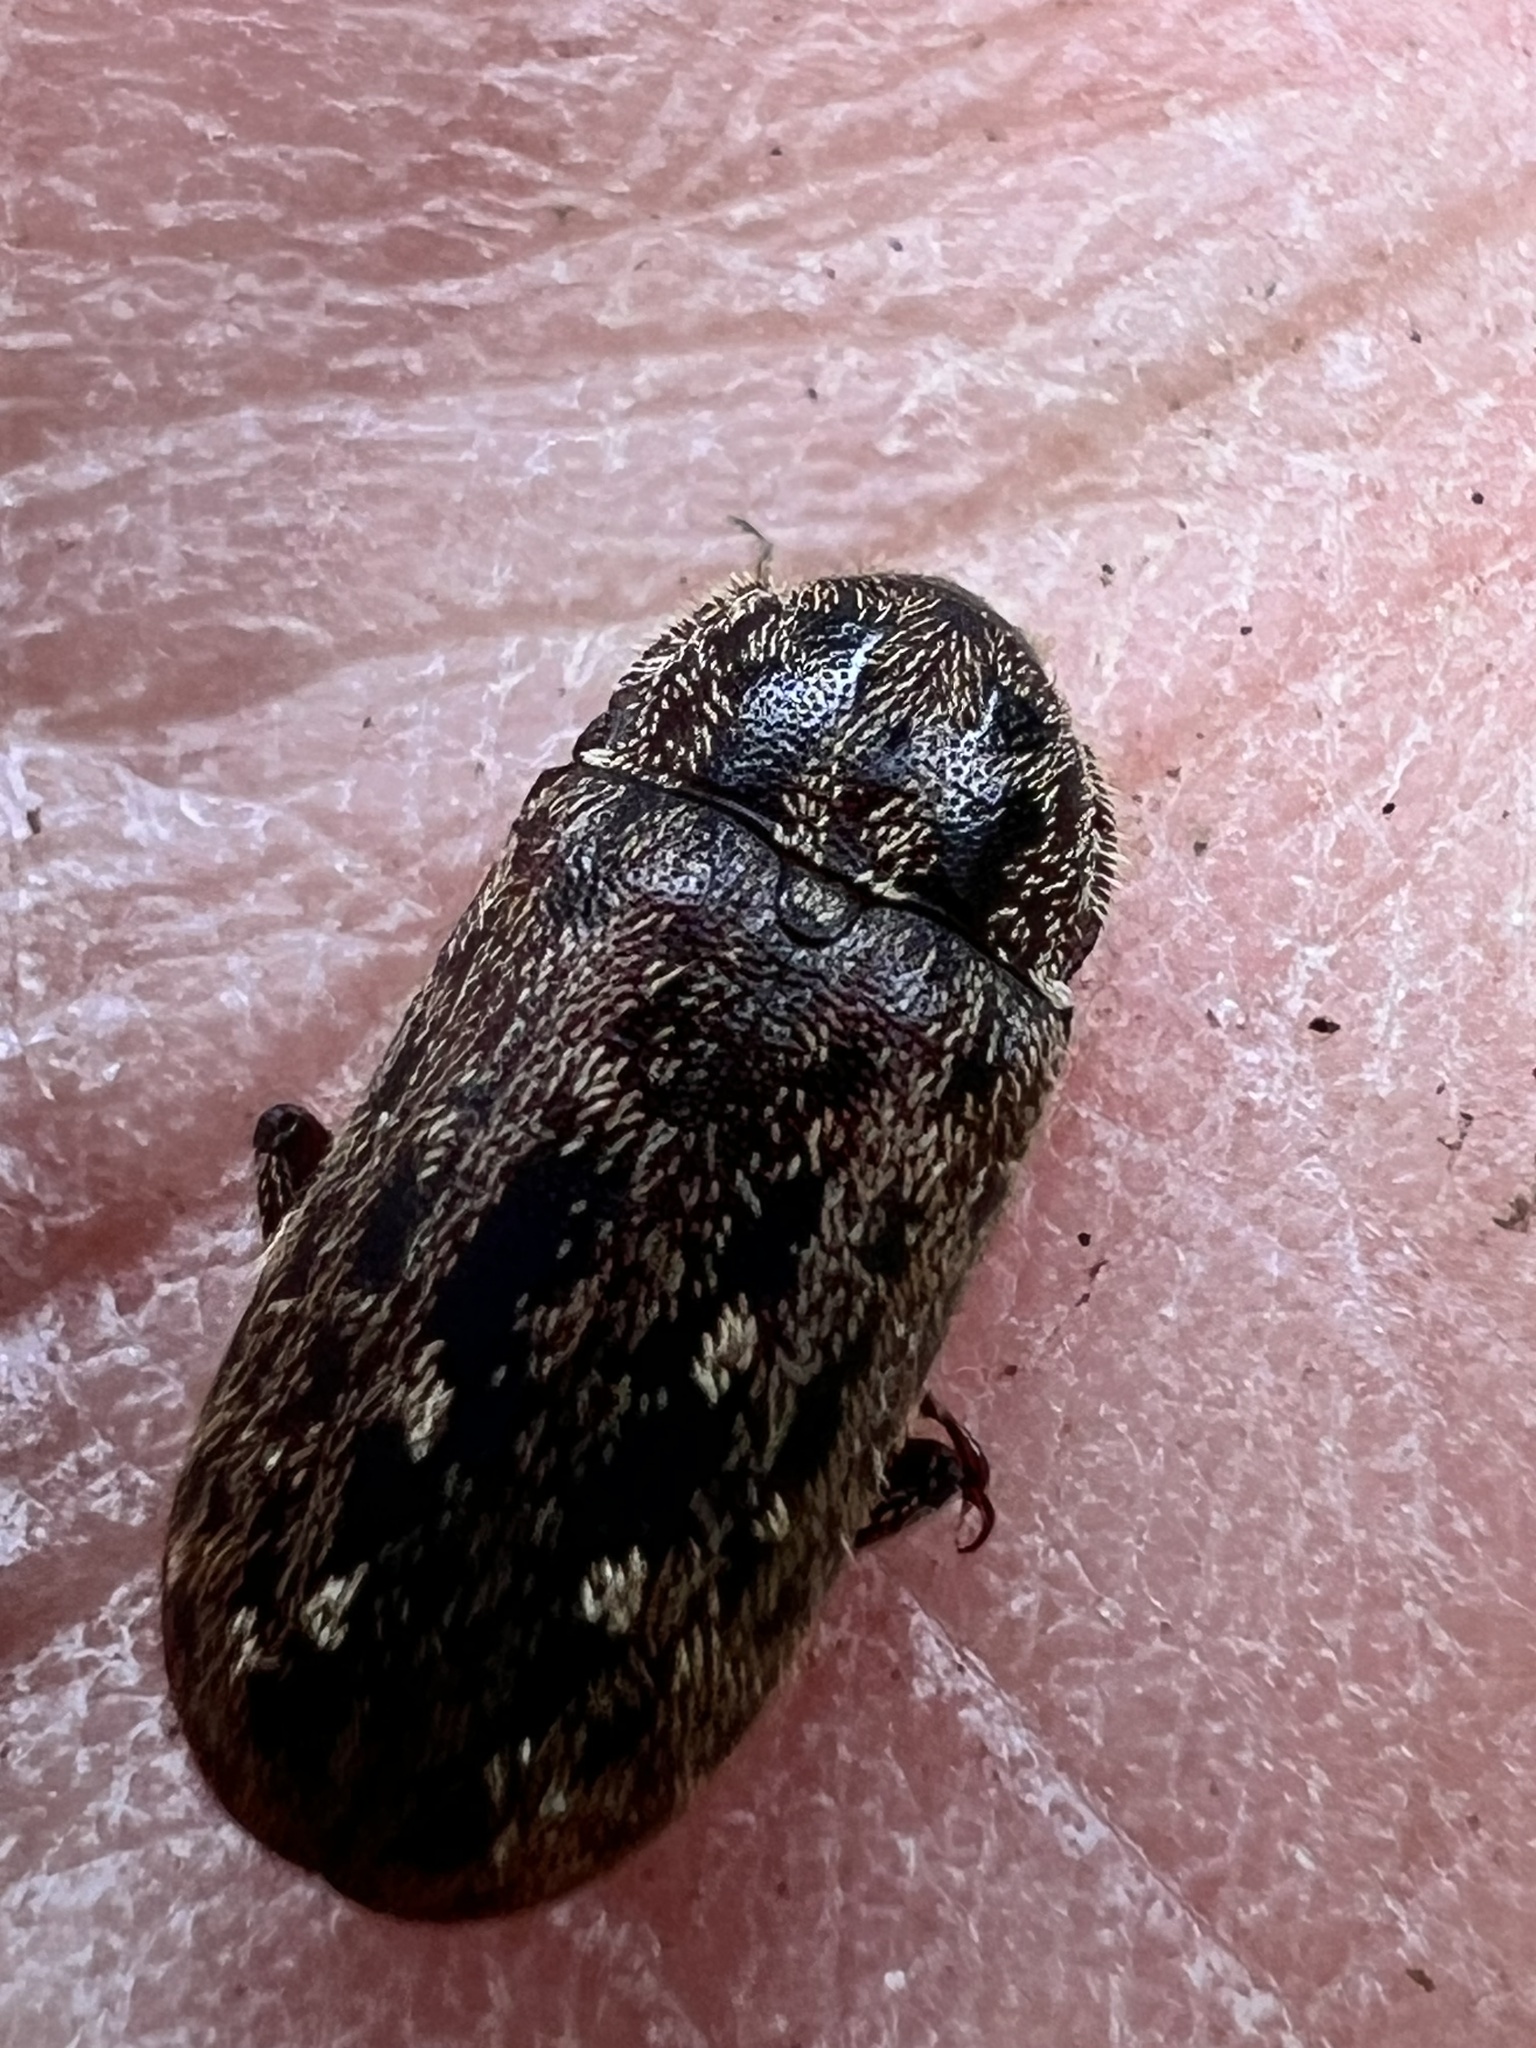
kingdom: Animalia
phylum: Arthropoda
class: Insecta
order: Coleoptera
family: Lucanidae
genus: Mitophyllus
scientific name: Mitophyllus irroratus
